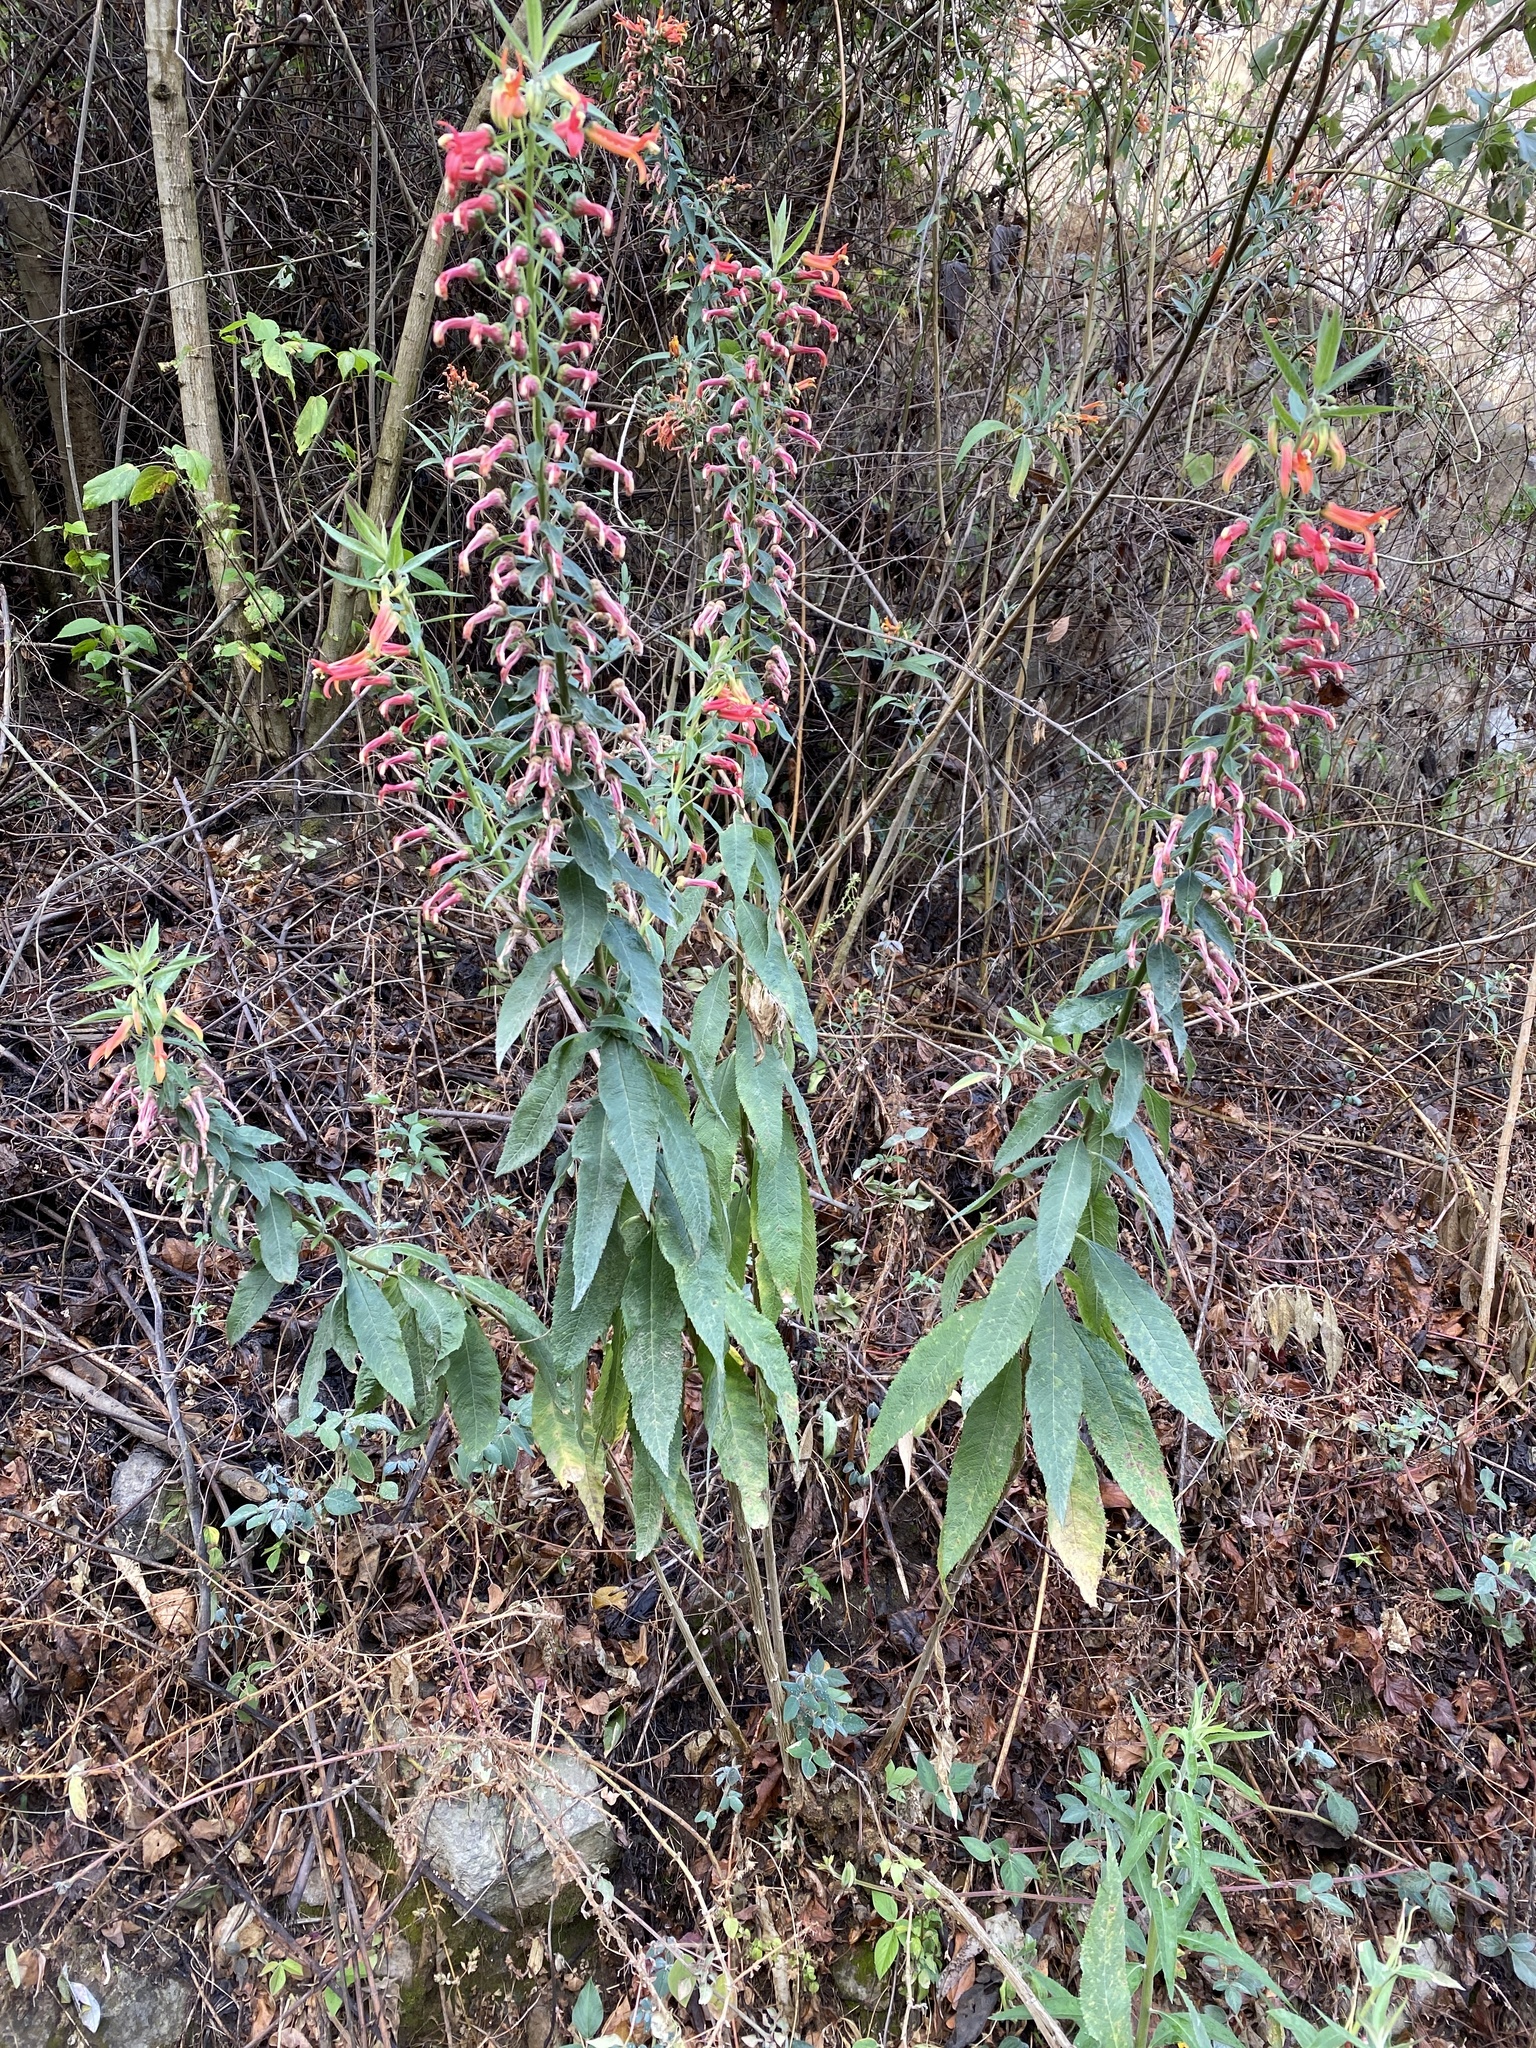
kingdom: Plantae
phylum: Tracheophyta
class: Magnoliopsida
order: Asterales
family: Campanulaceae
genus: Lobelia
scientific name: Lobelia laxiflora
